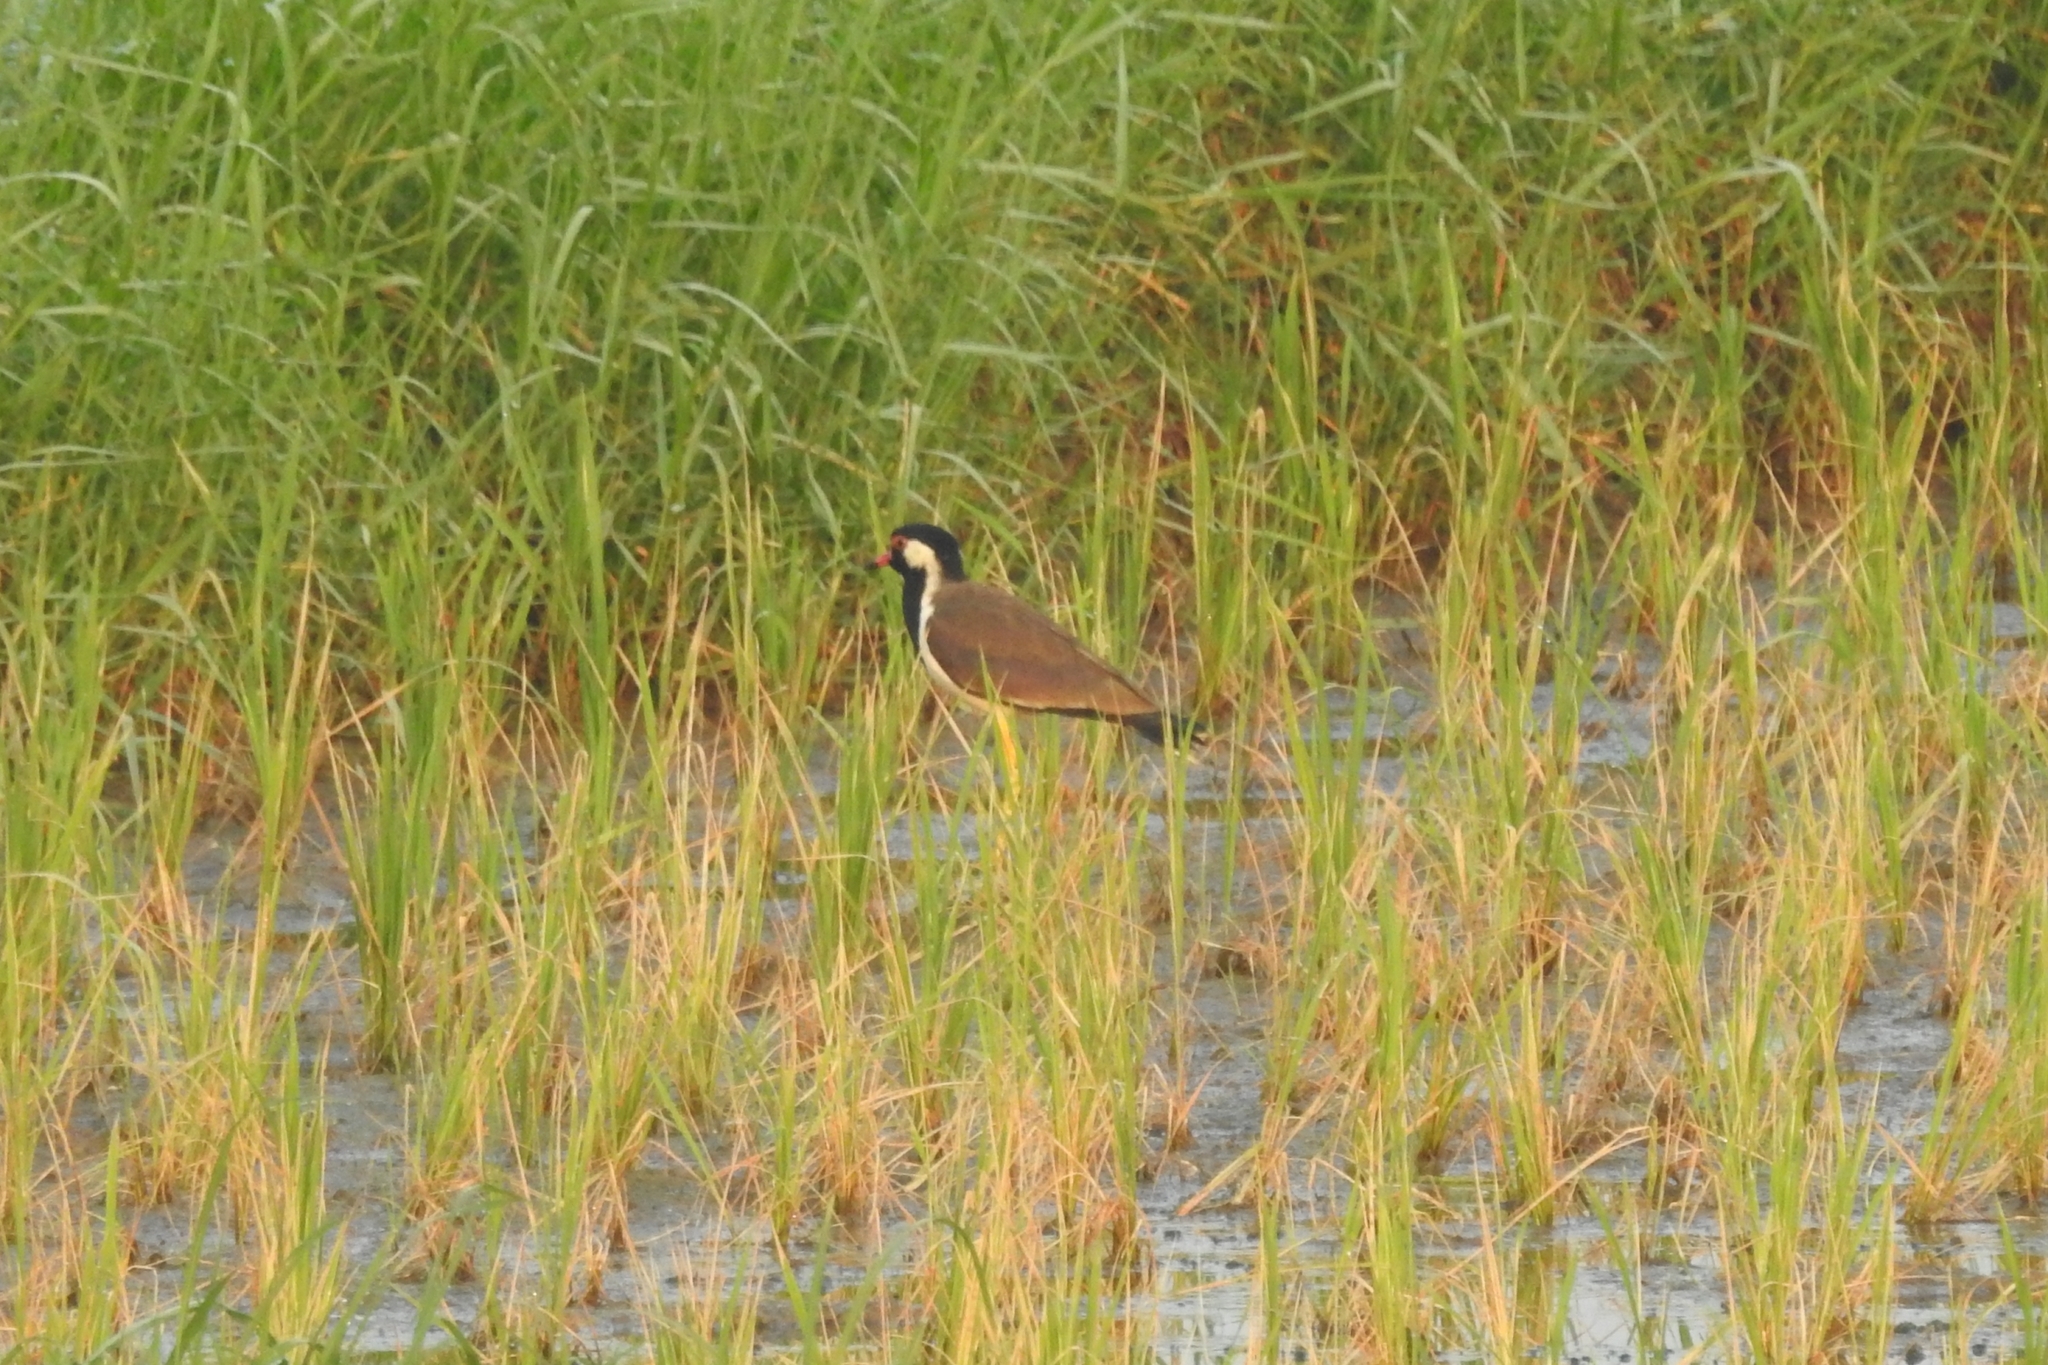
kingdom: Animalia
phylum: Chordata
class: Aves
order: Charadriiformes
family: Charadriidae
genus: Vanellus
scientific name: Vanellus indicus
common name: Red-wattled lapwing
